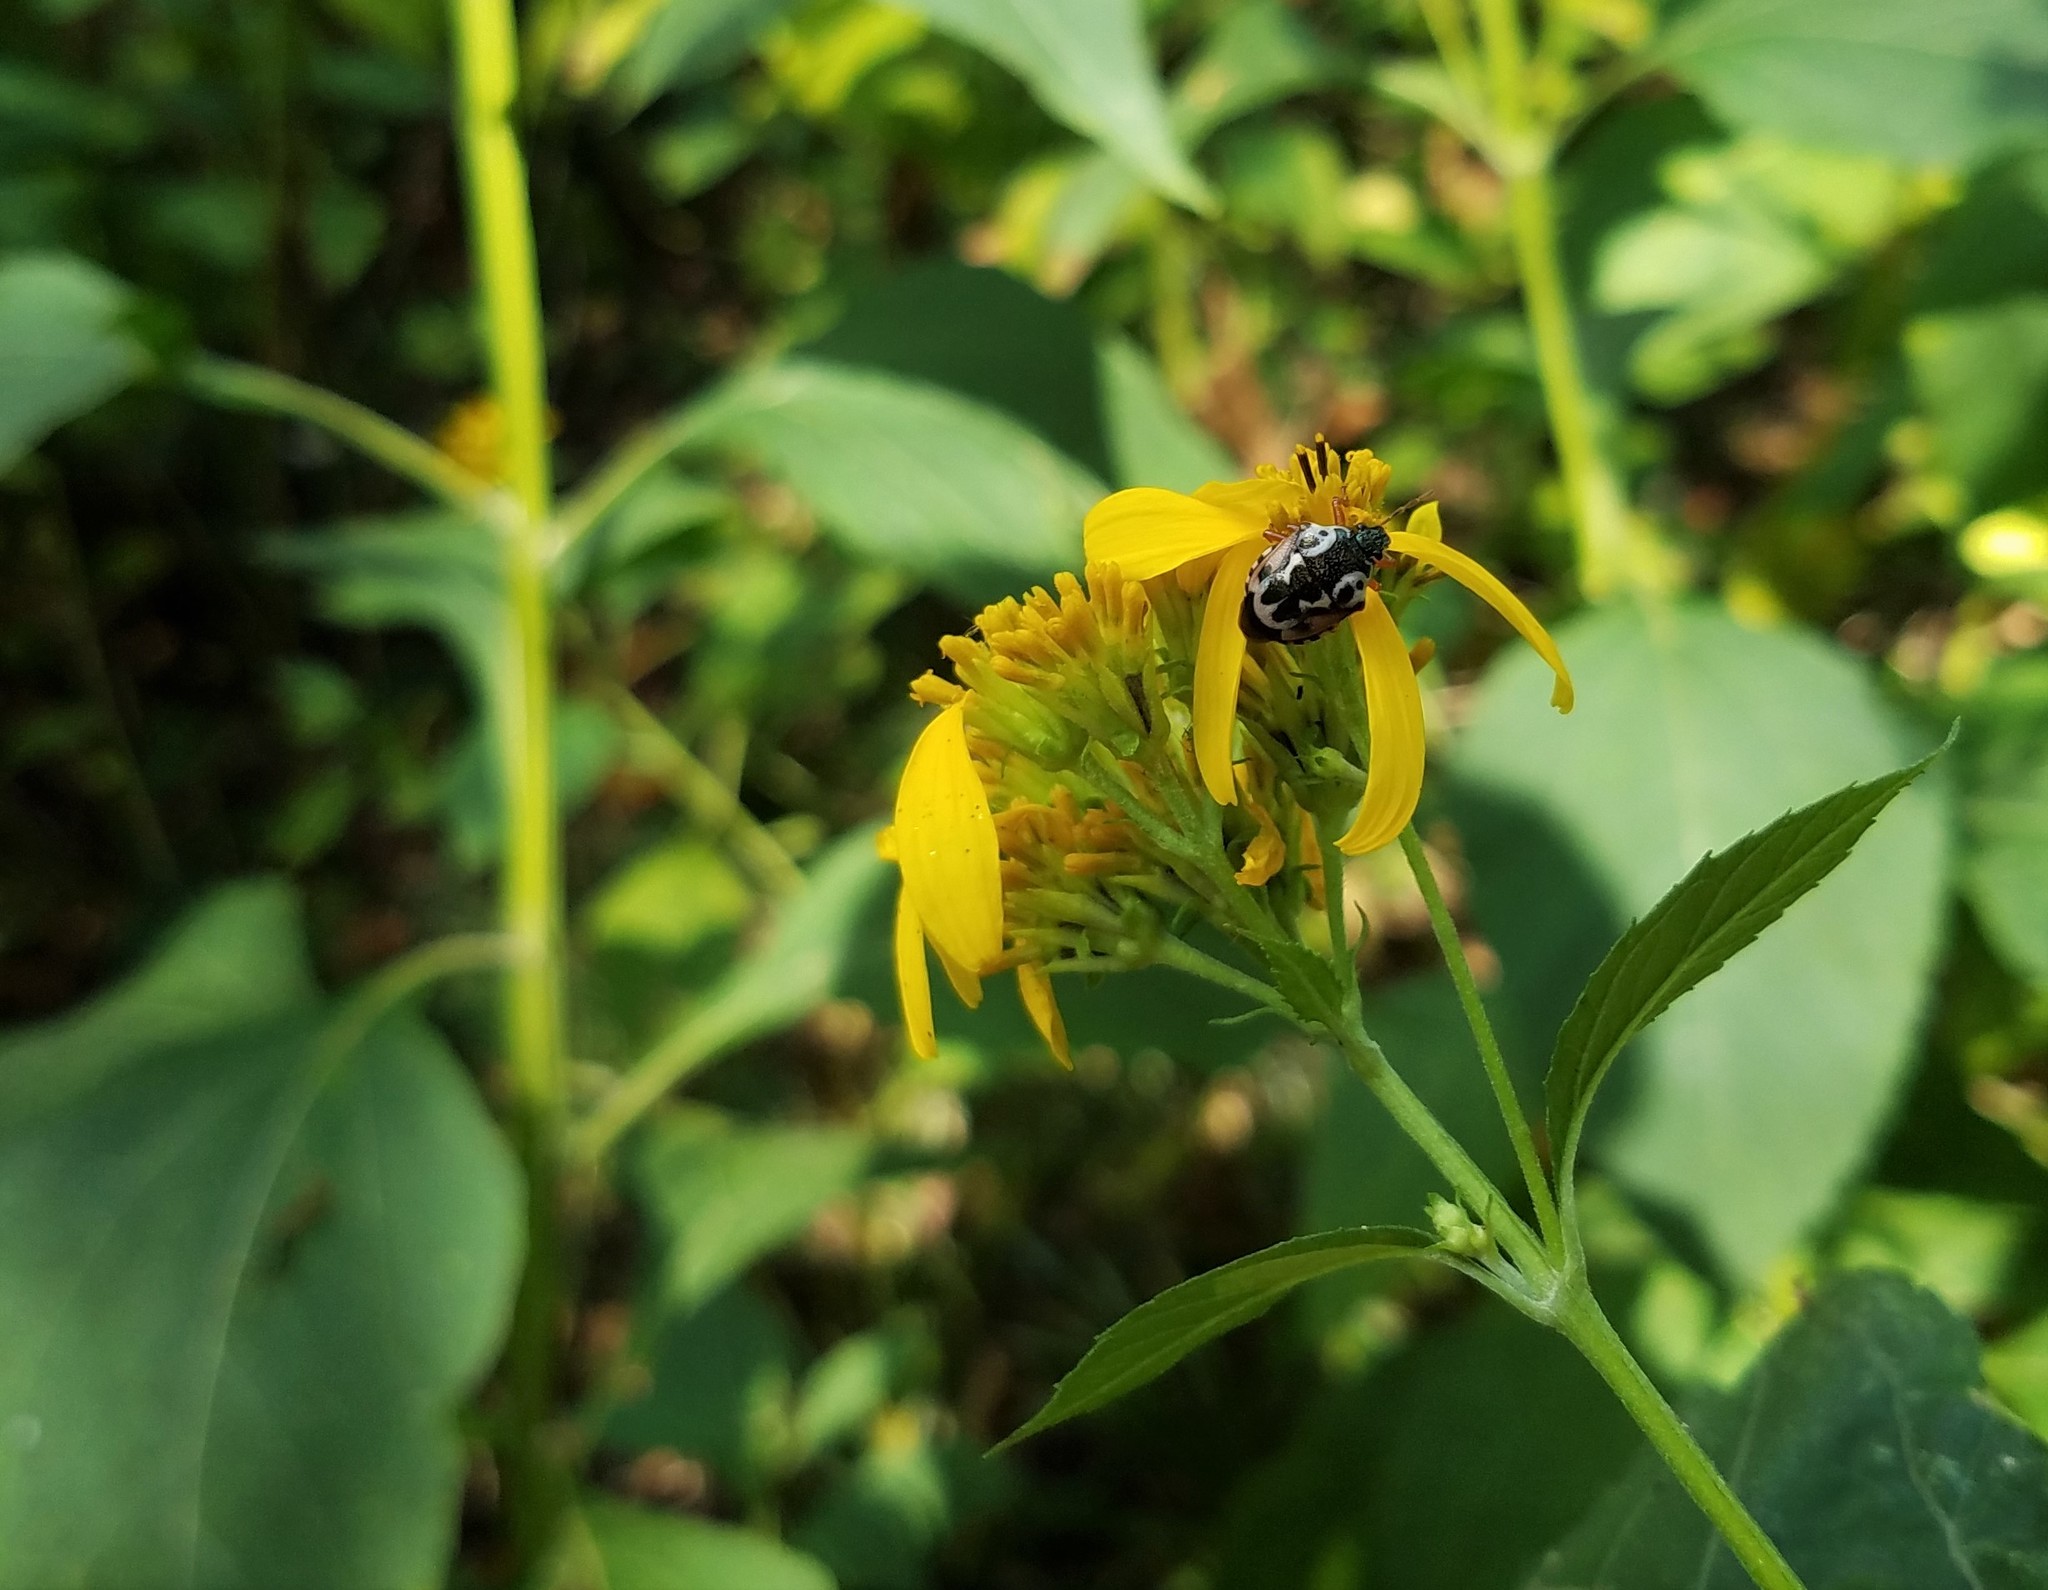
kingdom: Animalia
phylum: Arthropoda
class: Insecta
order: Hemiptera
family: Pentatomidae
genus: Stiretrus
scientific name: Stiretrus anchorago
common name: Anchor stink bug
